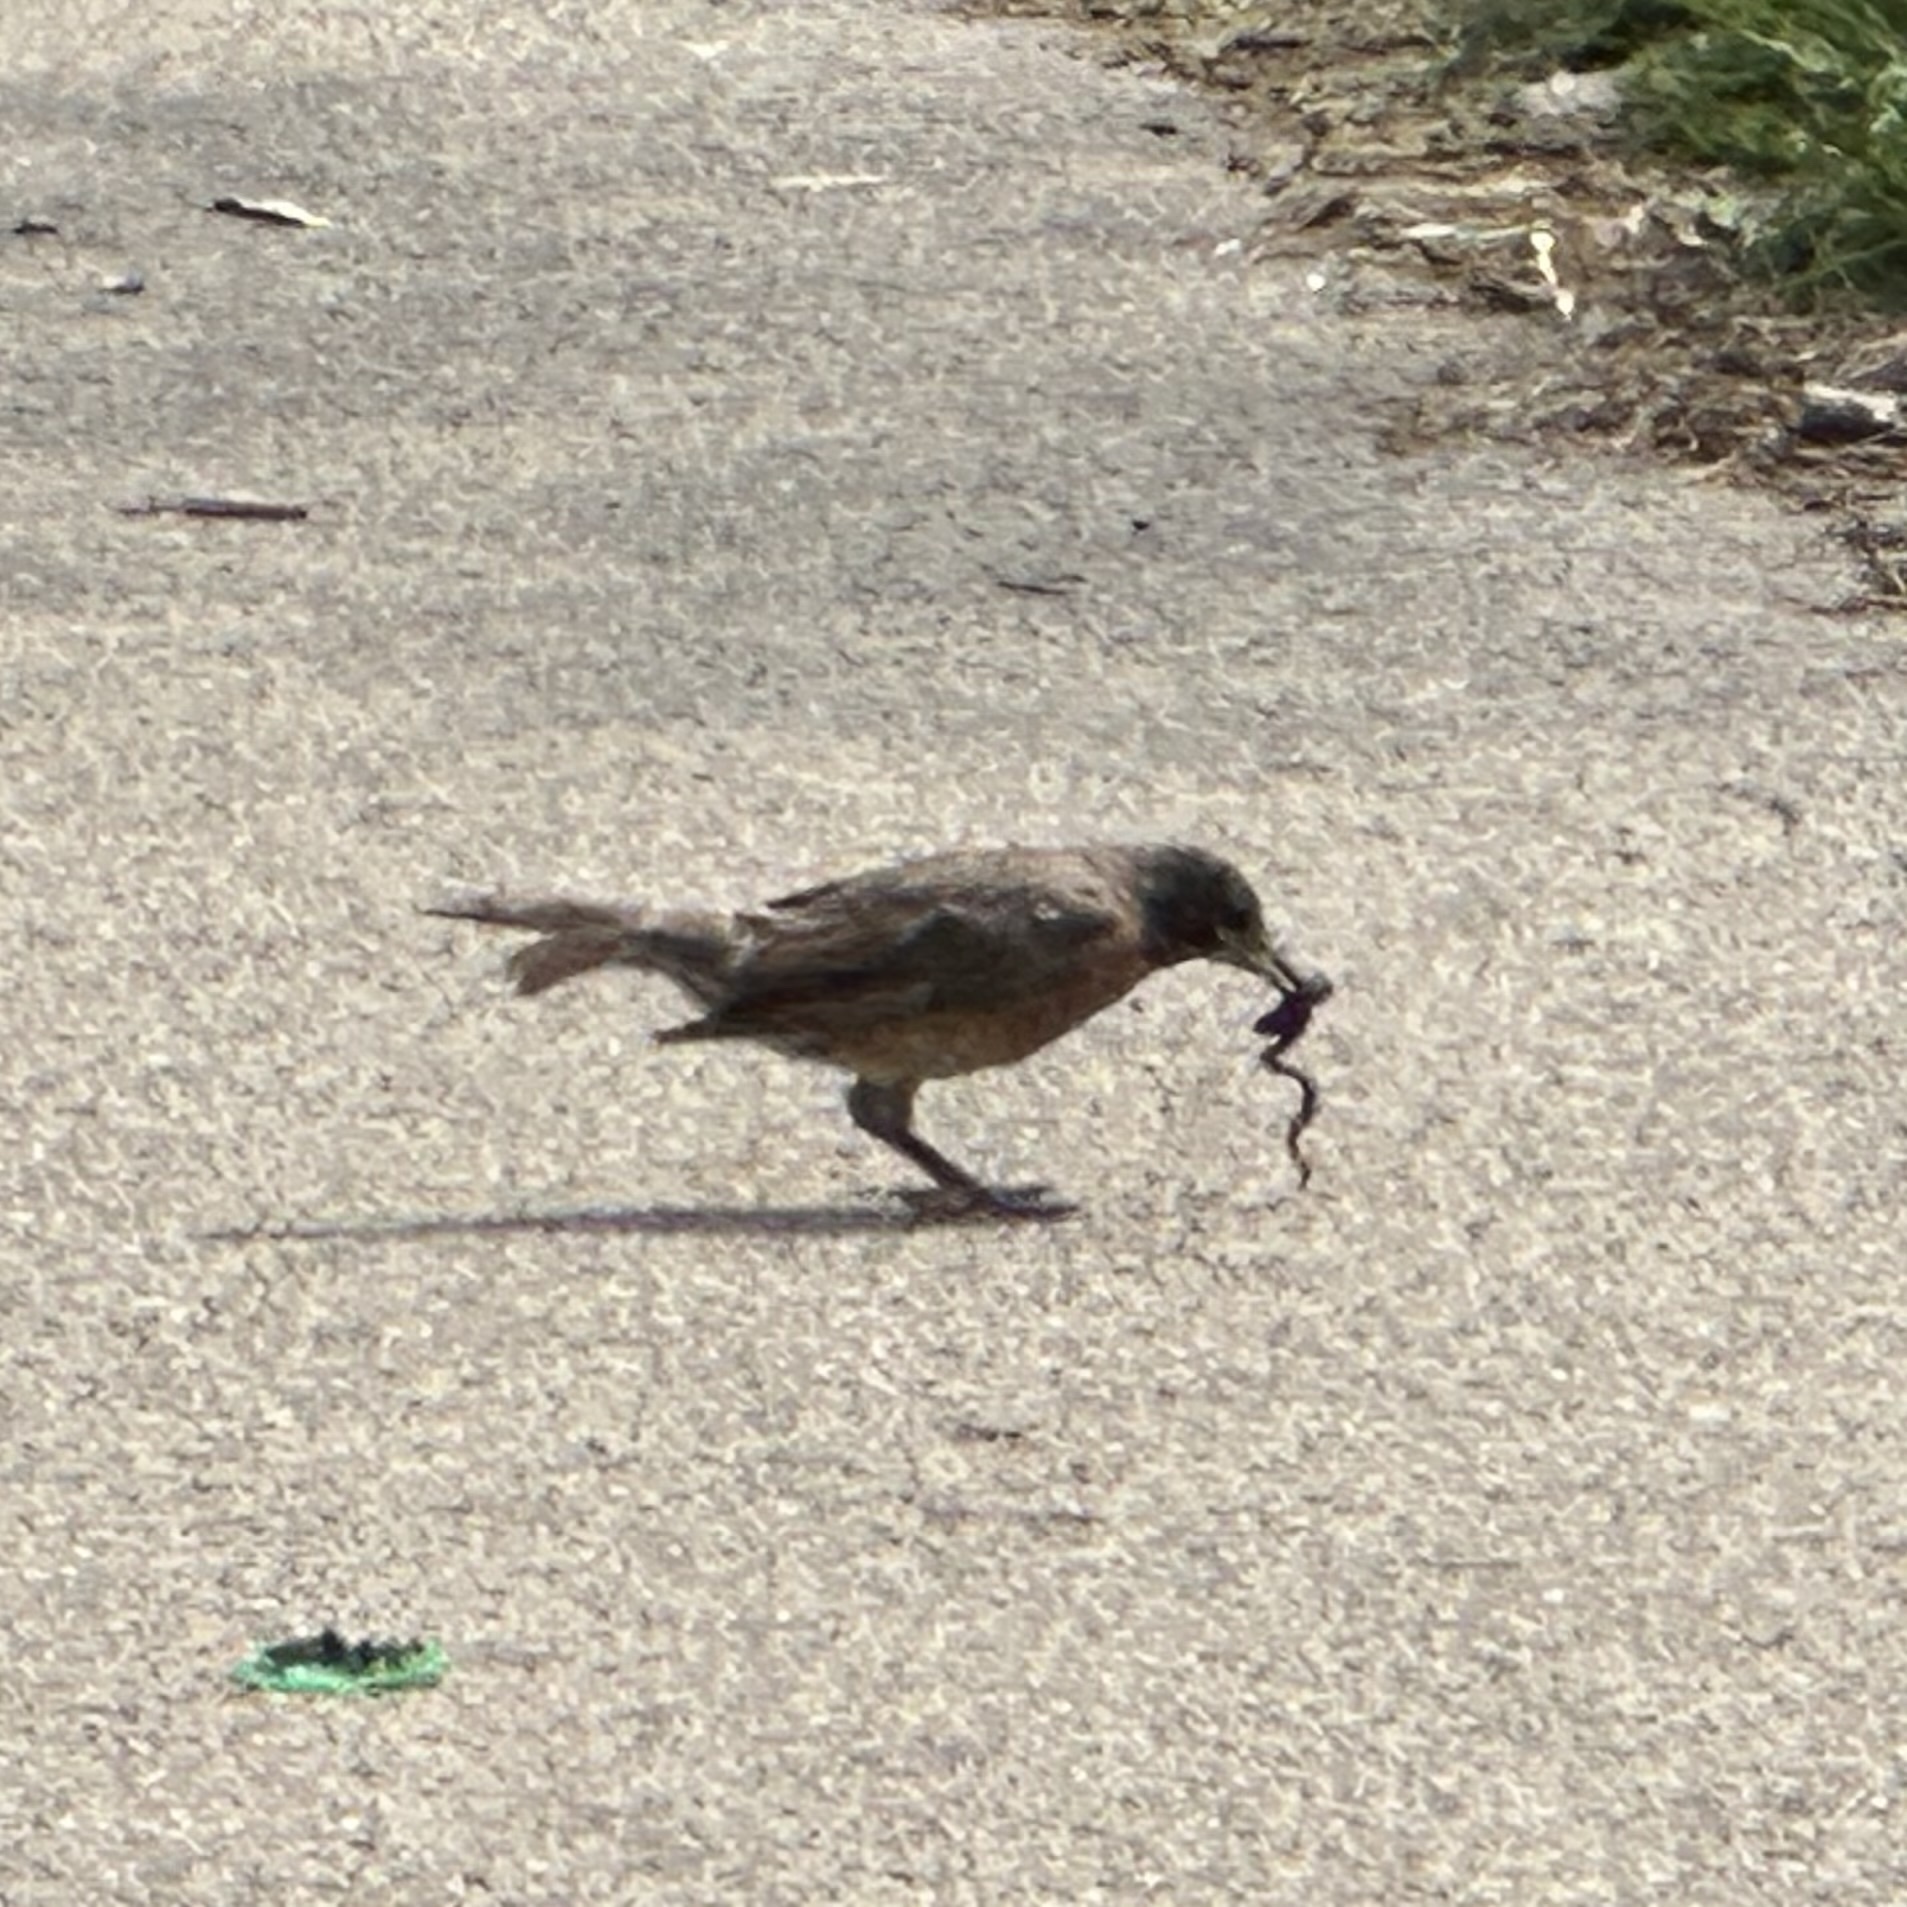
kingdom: Animalia
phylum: Chordata
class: Aves
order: Passeriformes
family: Turdidae
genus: Turdus
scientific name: Turdus migratorius
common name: American robin
